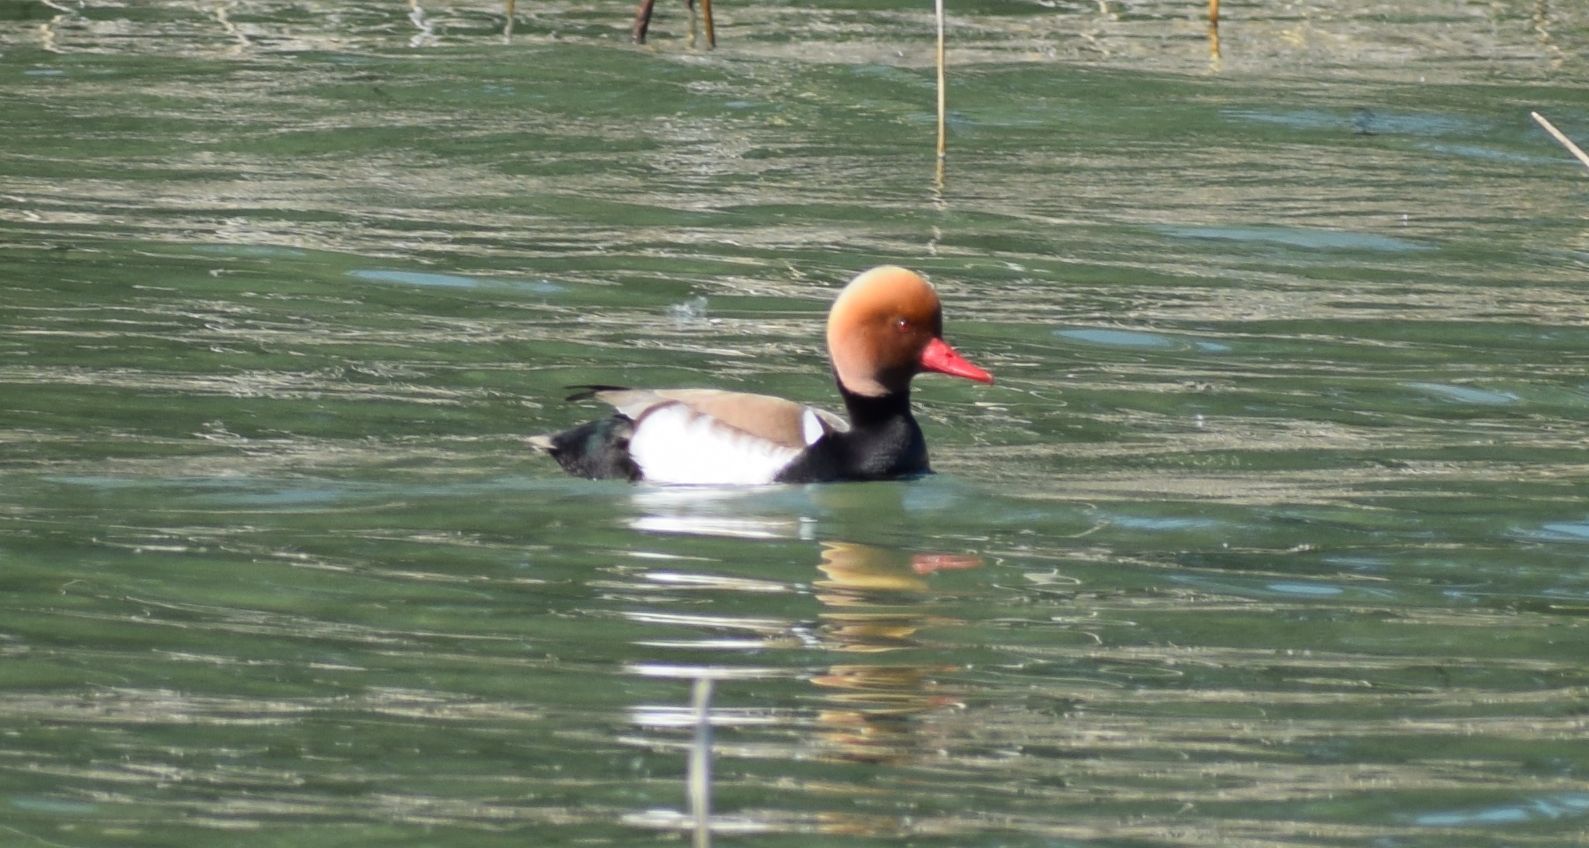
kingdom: Animalia
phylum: Chordata
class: Aves
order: Anseriformes
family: Anatidae
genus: Netta
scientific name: Netta rufina
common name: Red-crested pochard
